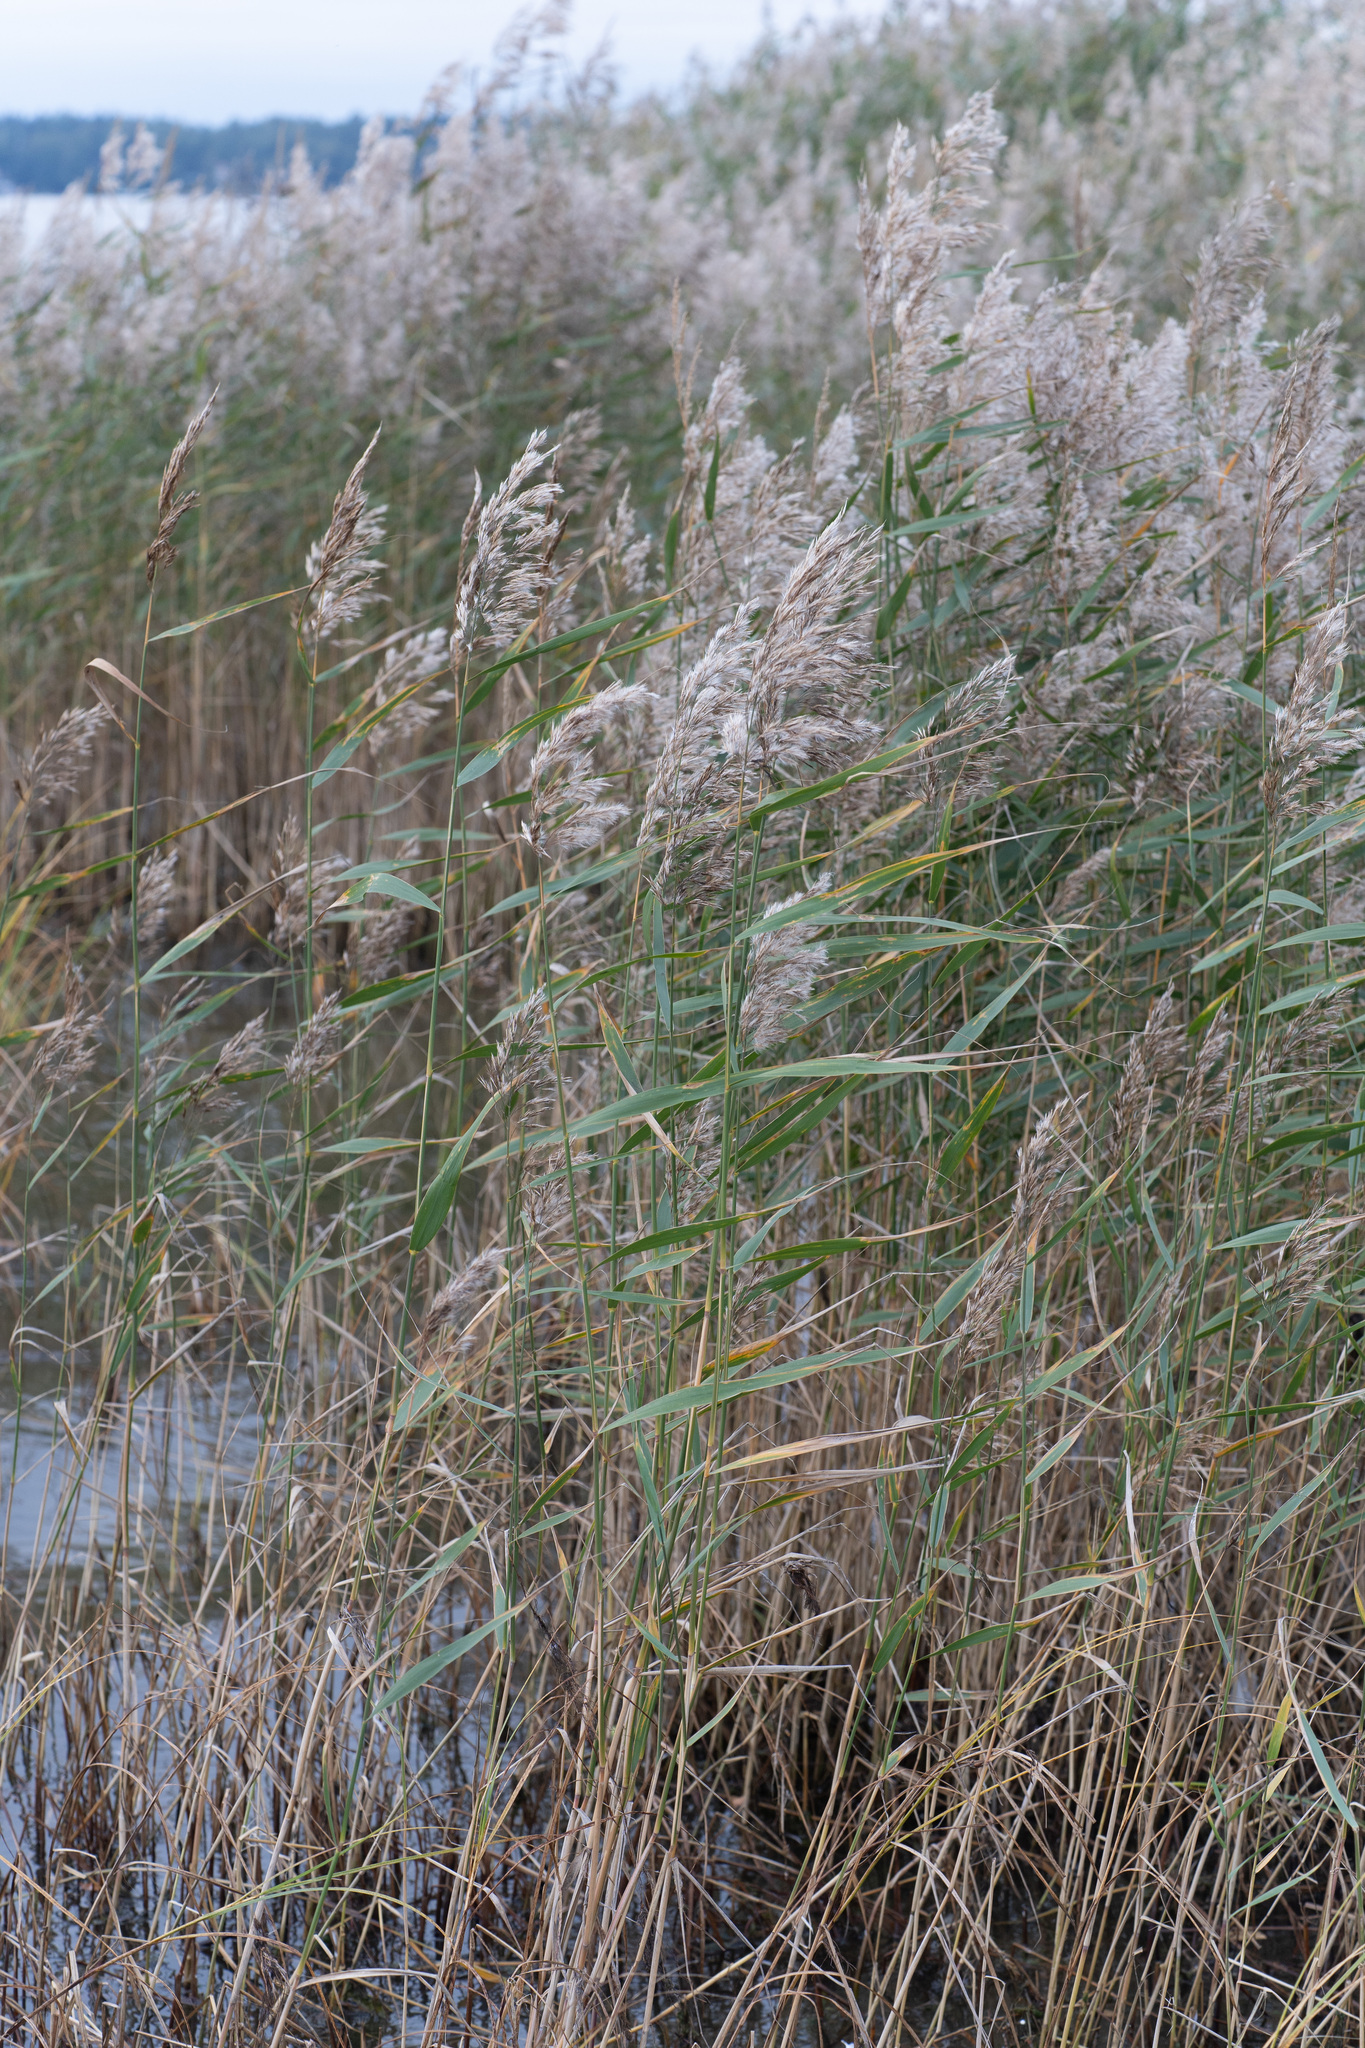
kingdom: Plantae
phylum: Tracheophyta
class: Liliopsida
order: Poales
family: Poaceae
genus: Phragmites
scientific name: Phragmites australis
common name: Common reed
